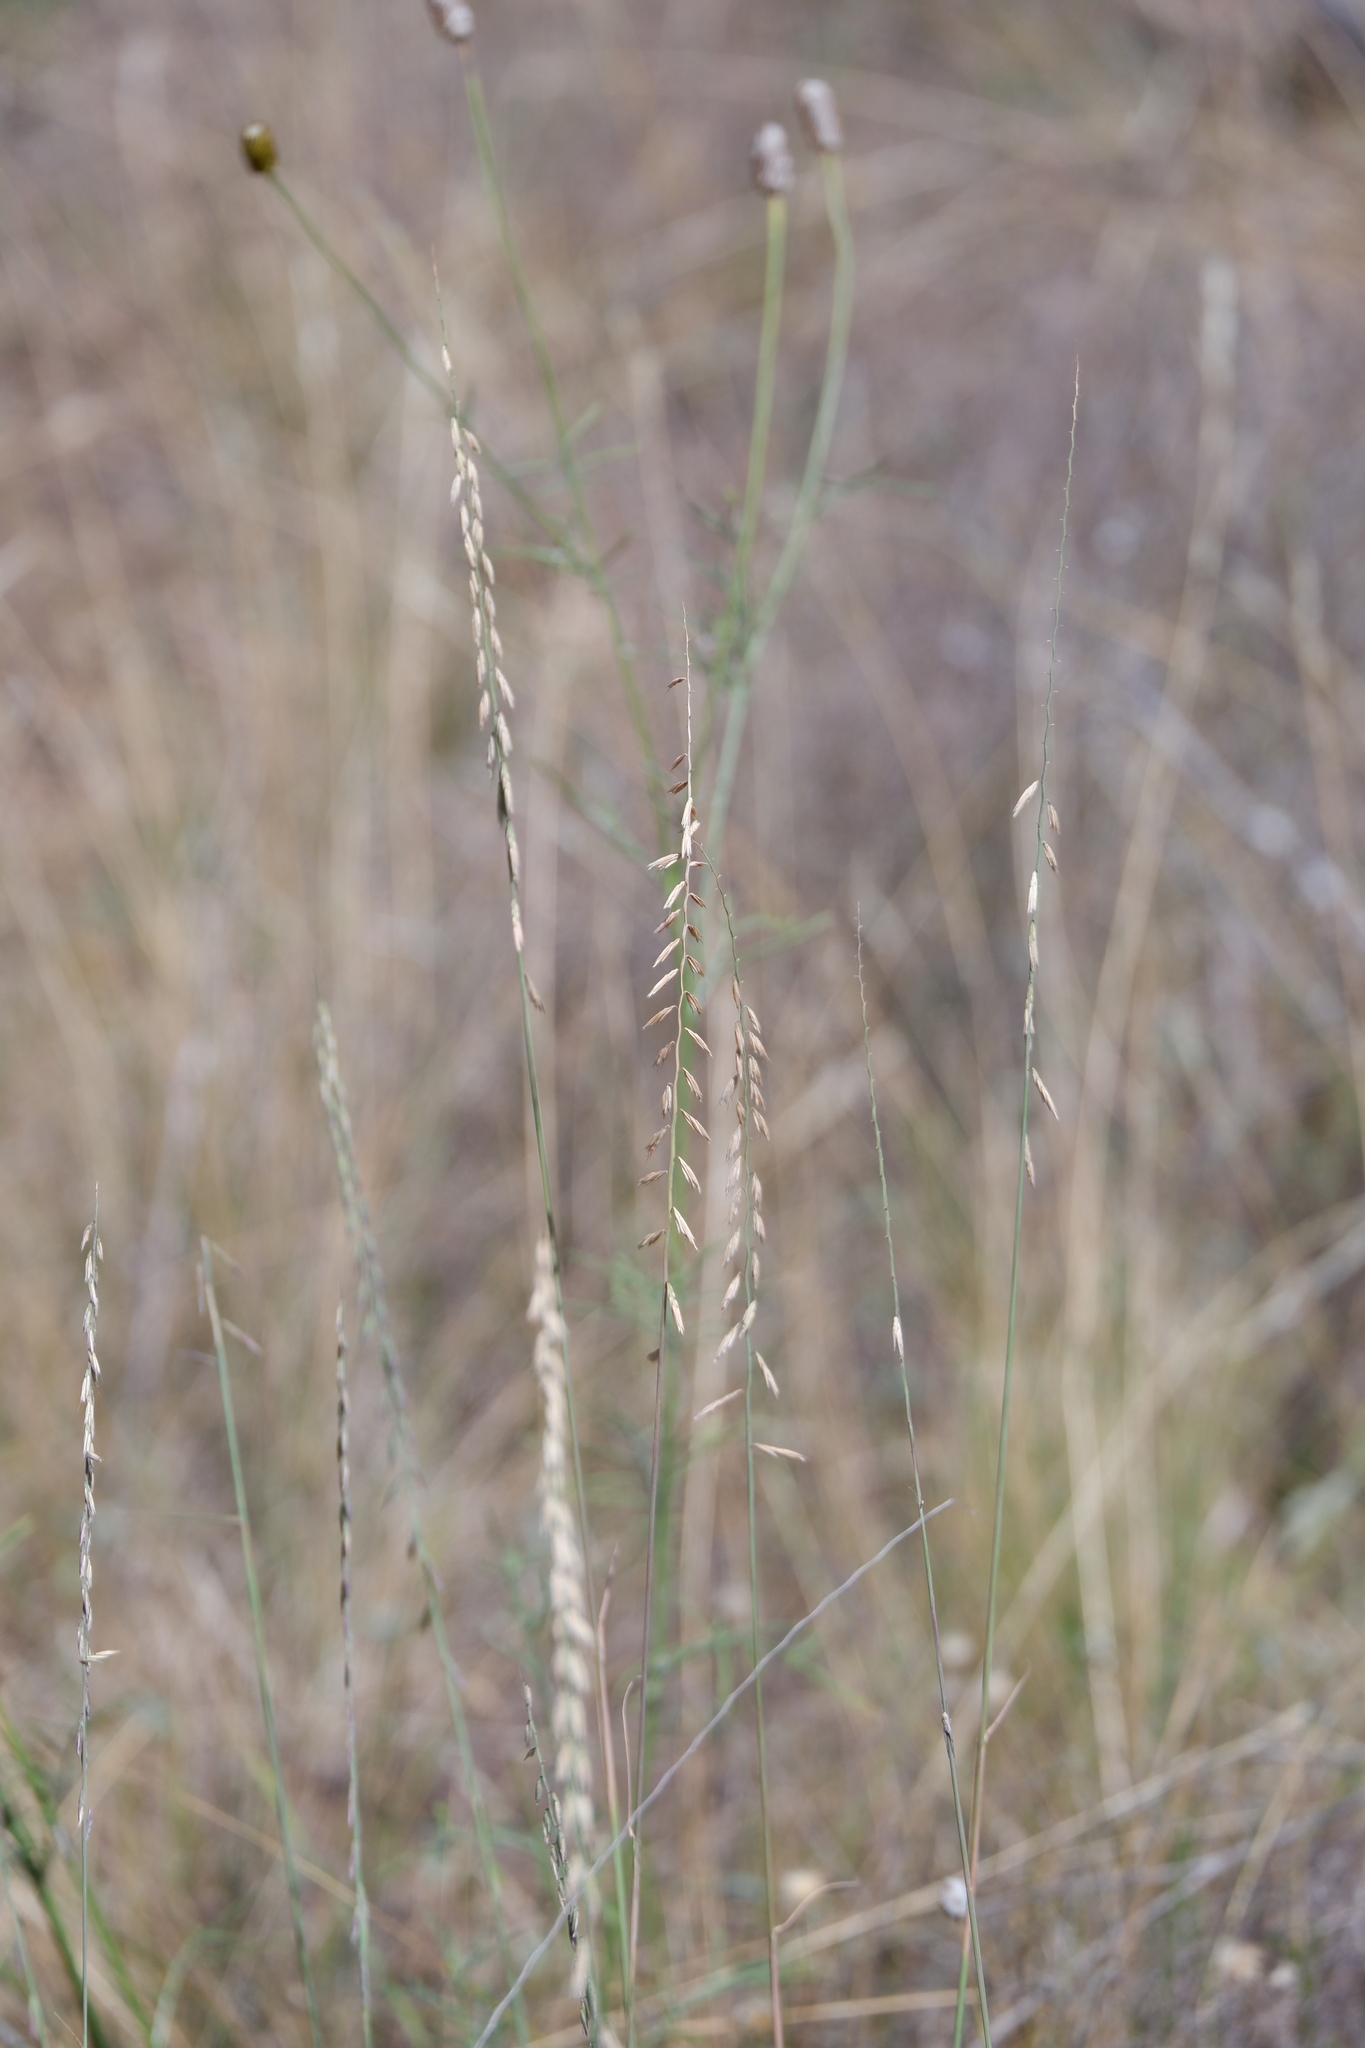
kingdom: Plantae
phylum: Tracheophyta
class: Liliopsida
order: Poales
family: Poaceae
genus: Bouteloua
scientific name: Bouteloua curtipendula
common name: Side-oats grama
